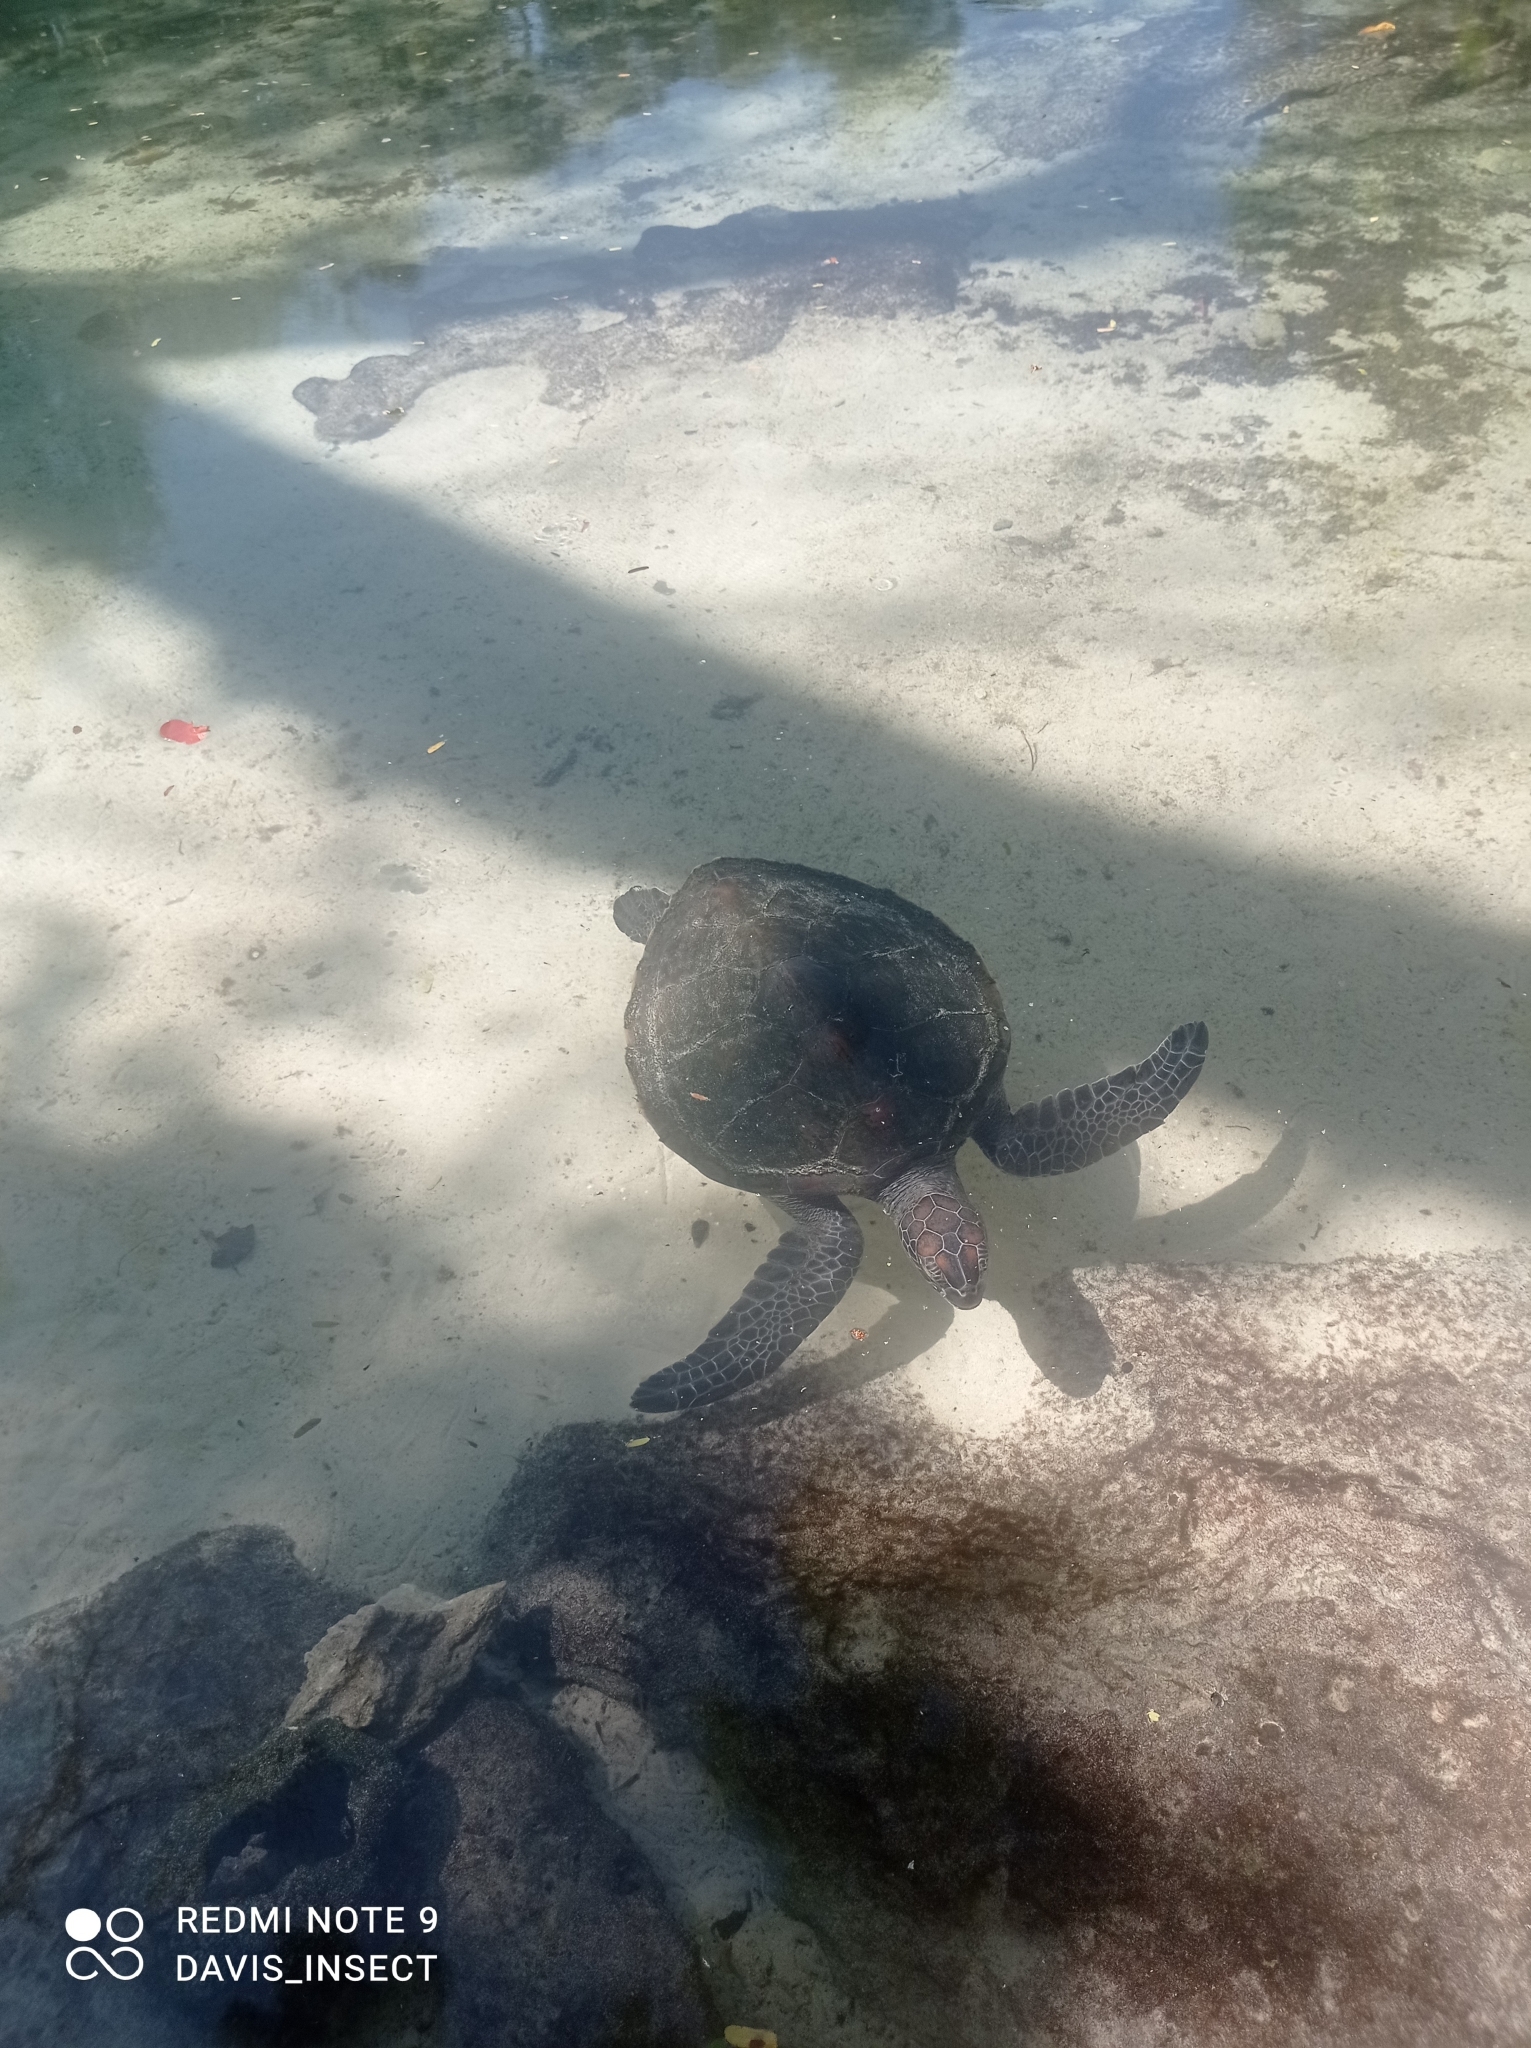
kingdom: Animalia
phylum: Chordata
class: Testudines
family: Cheloniidae
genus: Chelonia
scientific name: Chelonia mydas
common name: Green turtle
